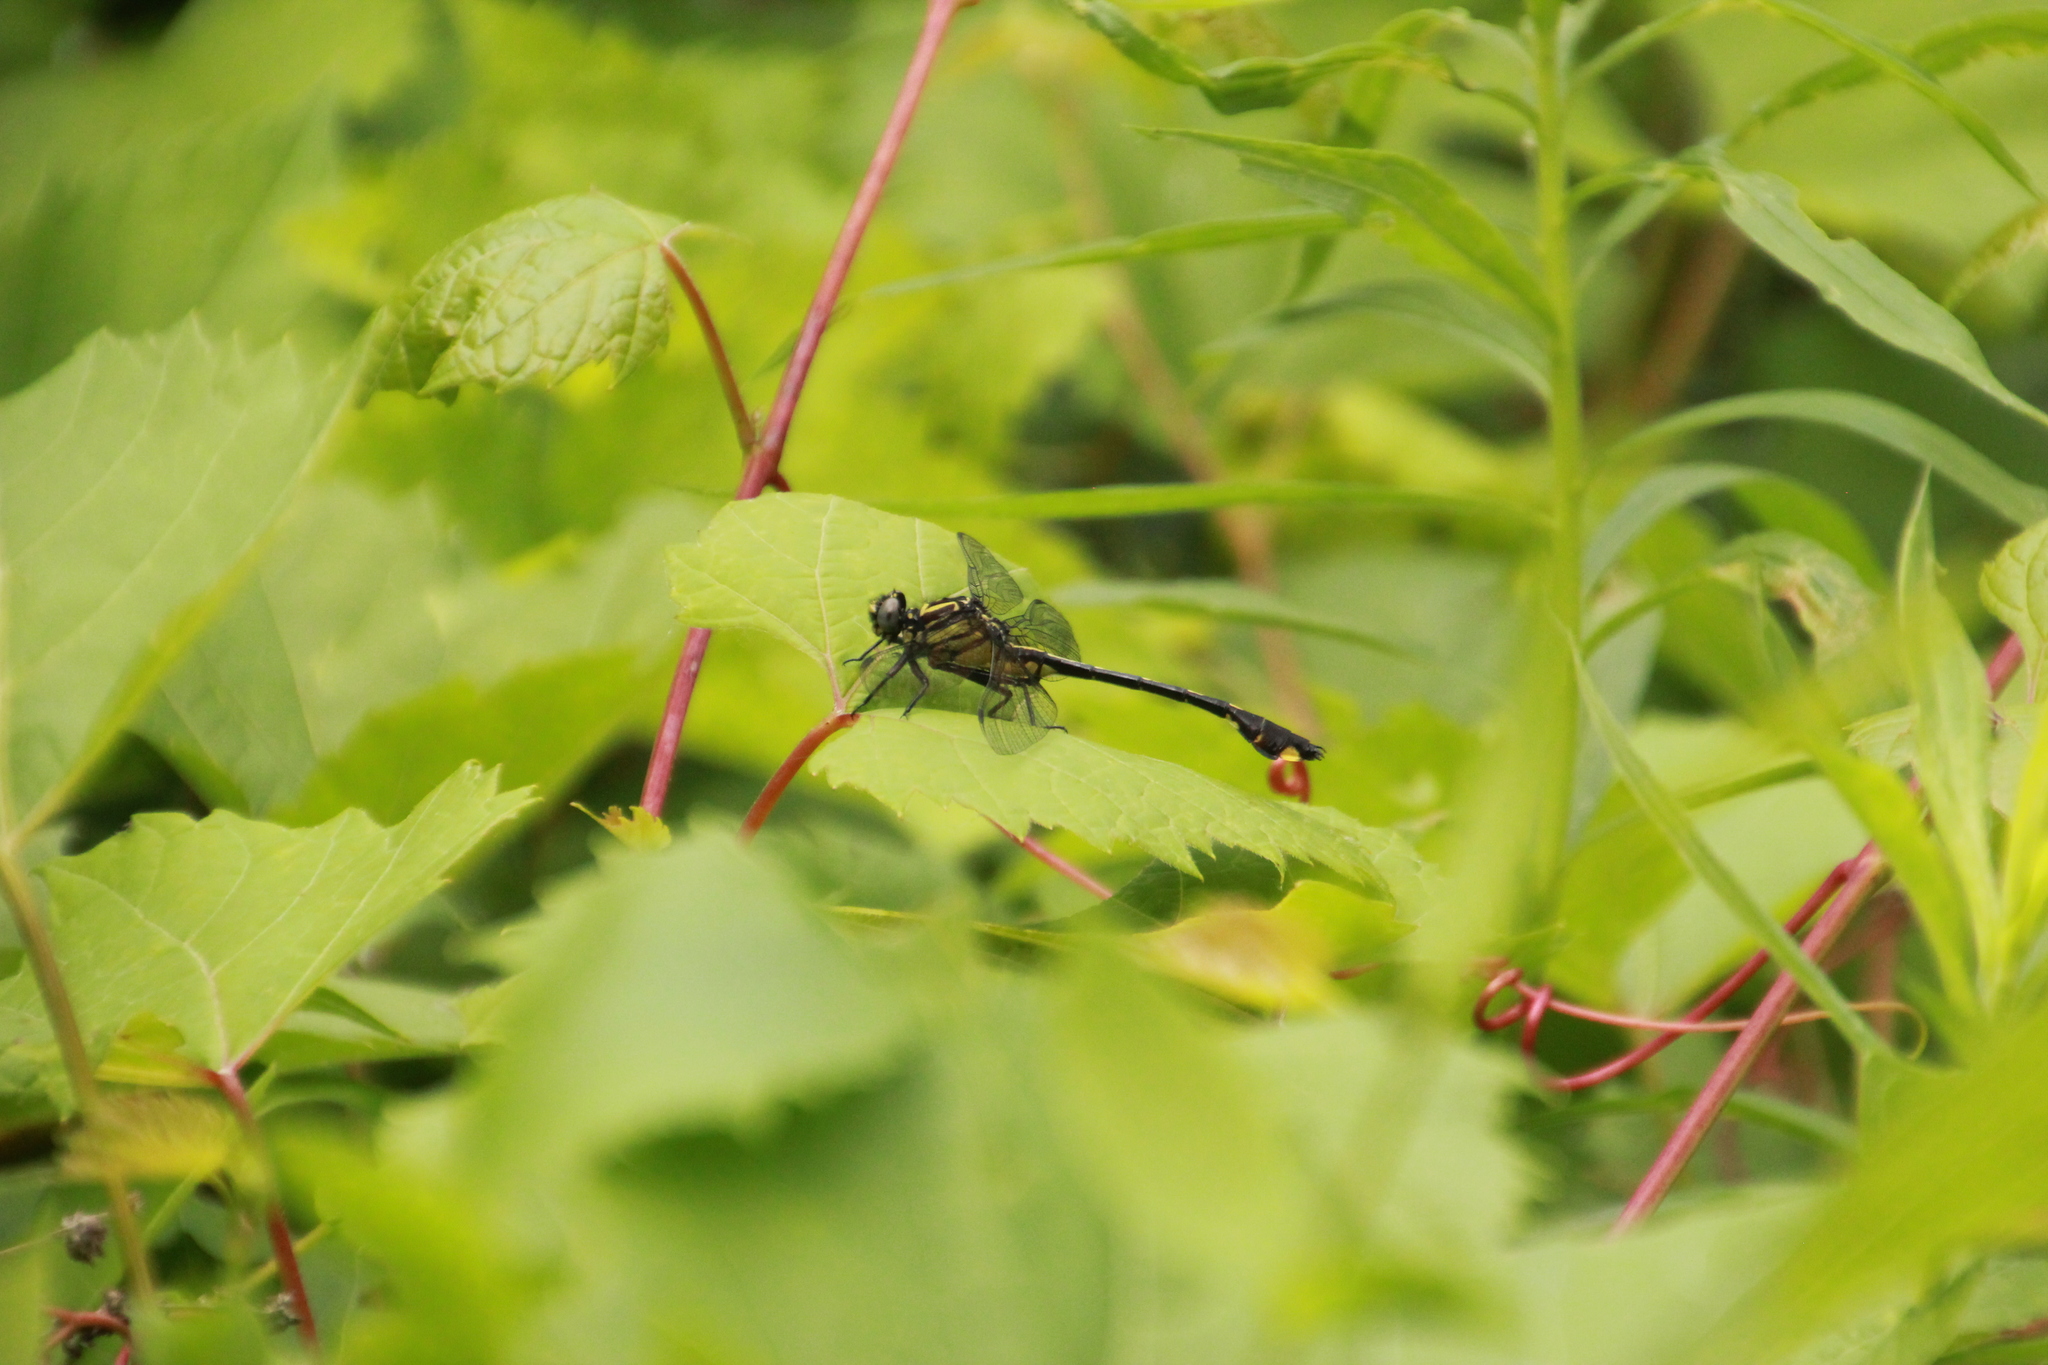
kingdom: Animalia
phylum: Arthropoda
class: Insecta
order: Odonata
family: Gomphidae
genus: Gomphurus
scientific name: Gomphurus vastus
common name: Cobra clubtail
